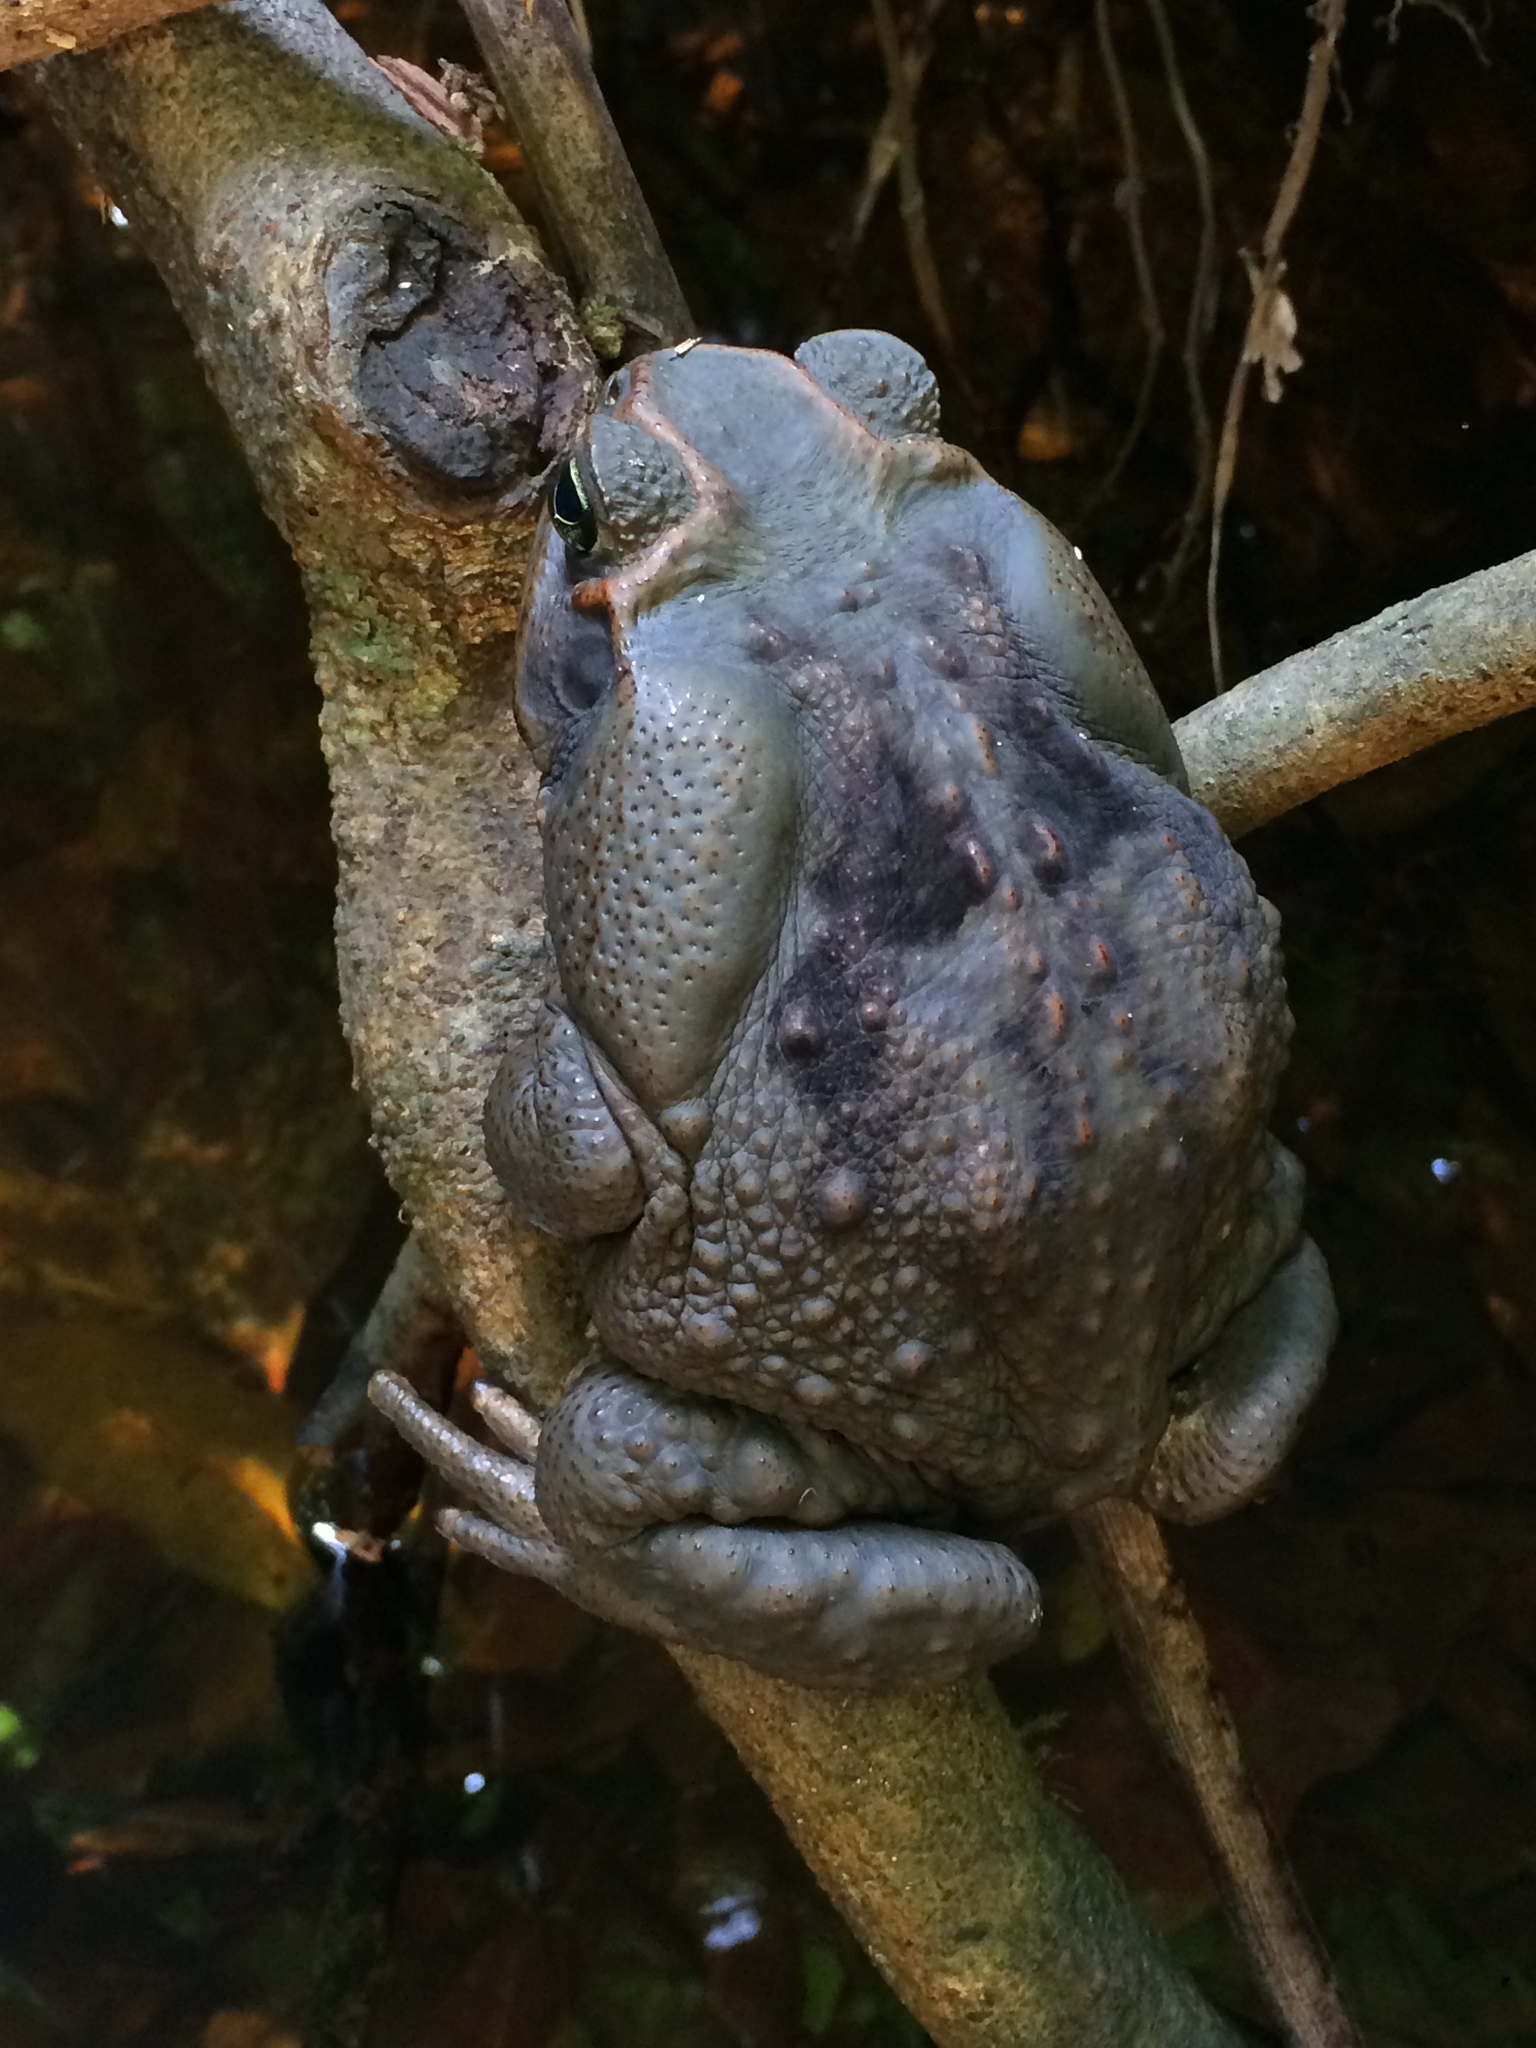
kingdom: Animalia
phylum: Chordata
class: Amphibia
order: Anura
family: Bufonidae
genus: Rhinella
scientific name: Rhinella diptycha
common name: Cope's toad
